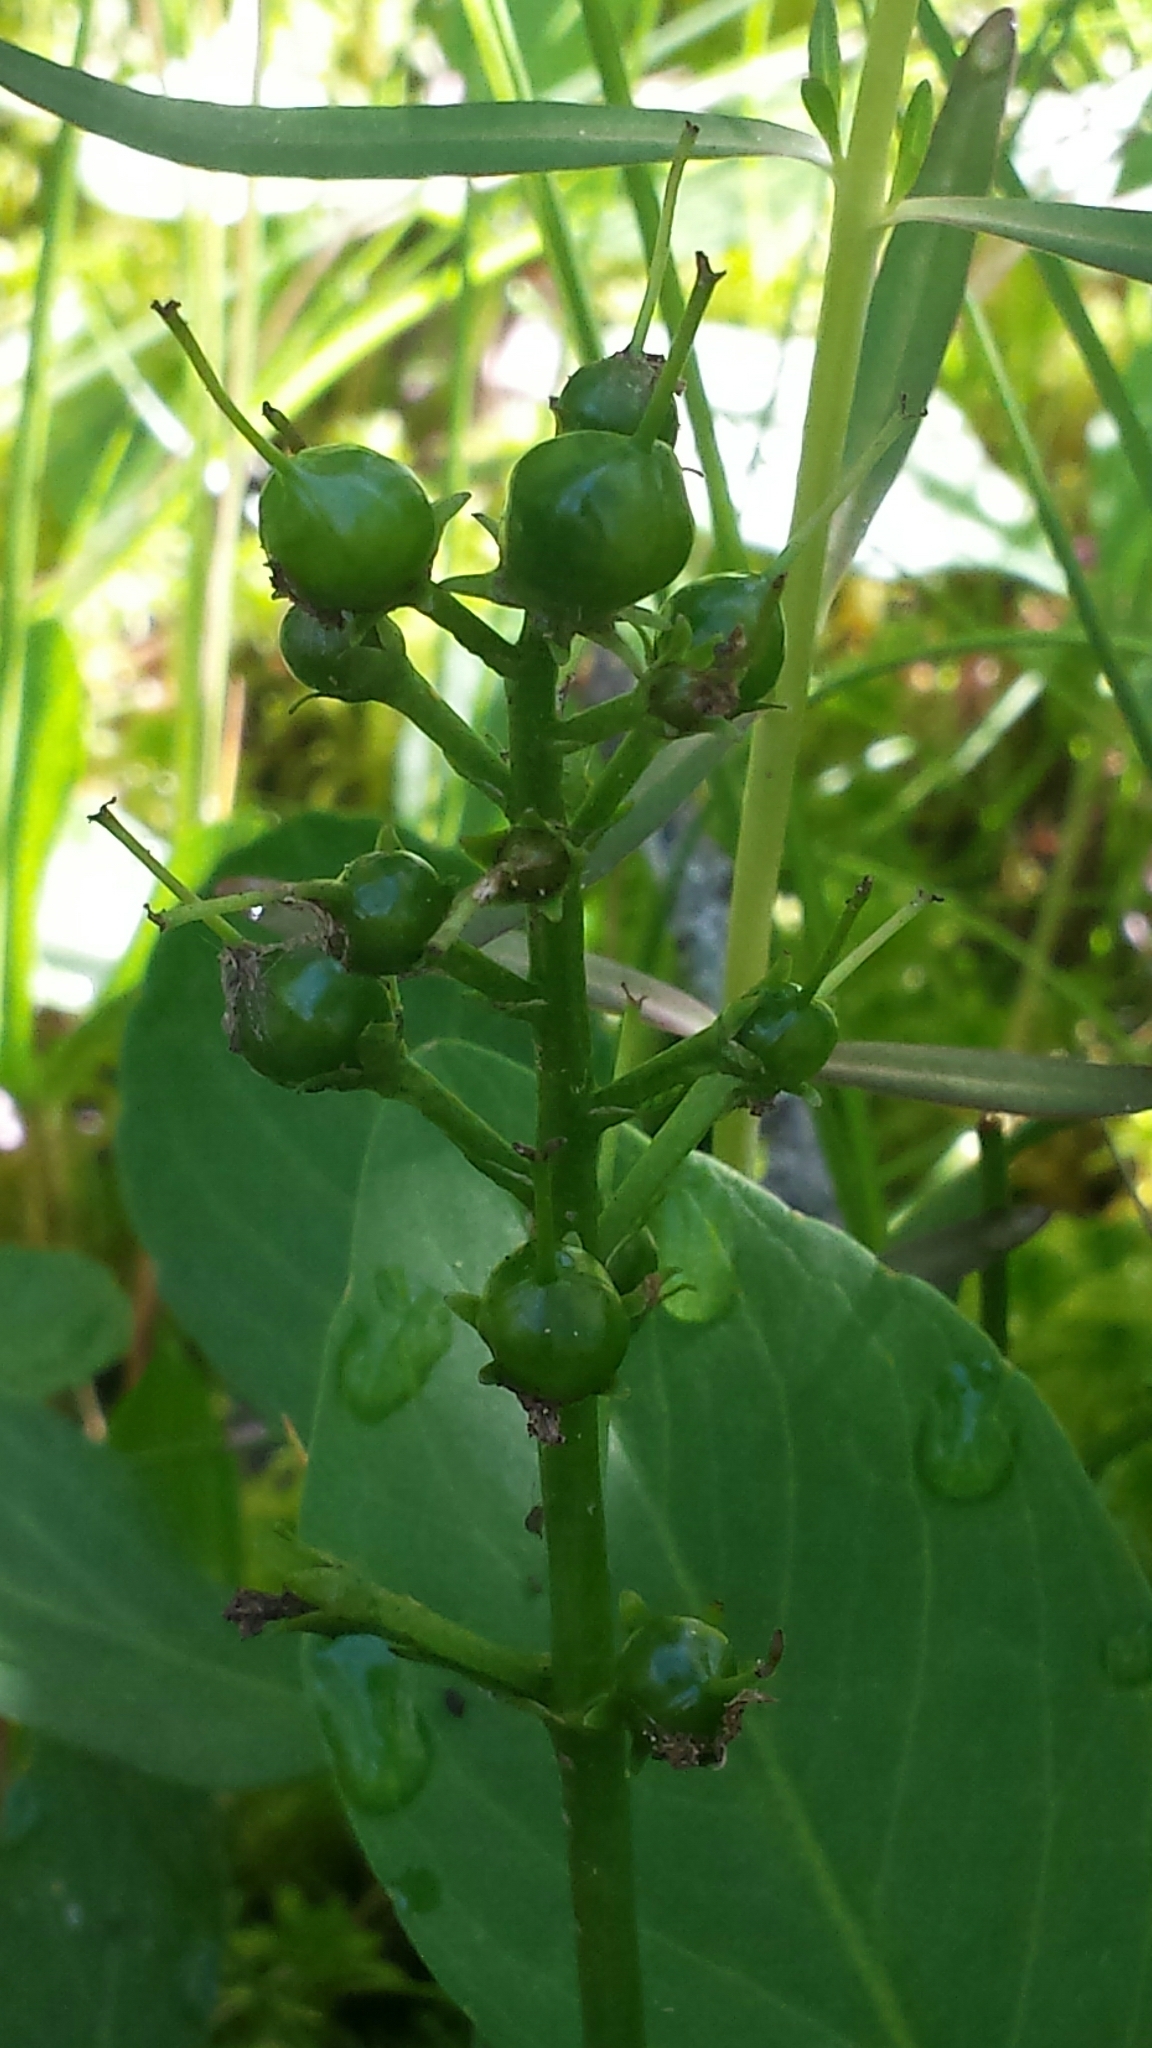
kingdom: Plantae
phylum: Tracheophyta
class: Magnoliopsida
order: Asterales
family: Menyanthaceae
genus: Menyanthes
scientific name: Menyanthes trifoliata
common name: Bogbean
